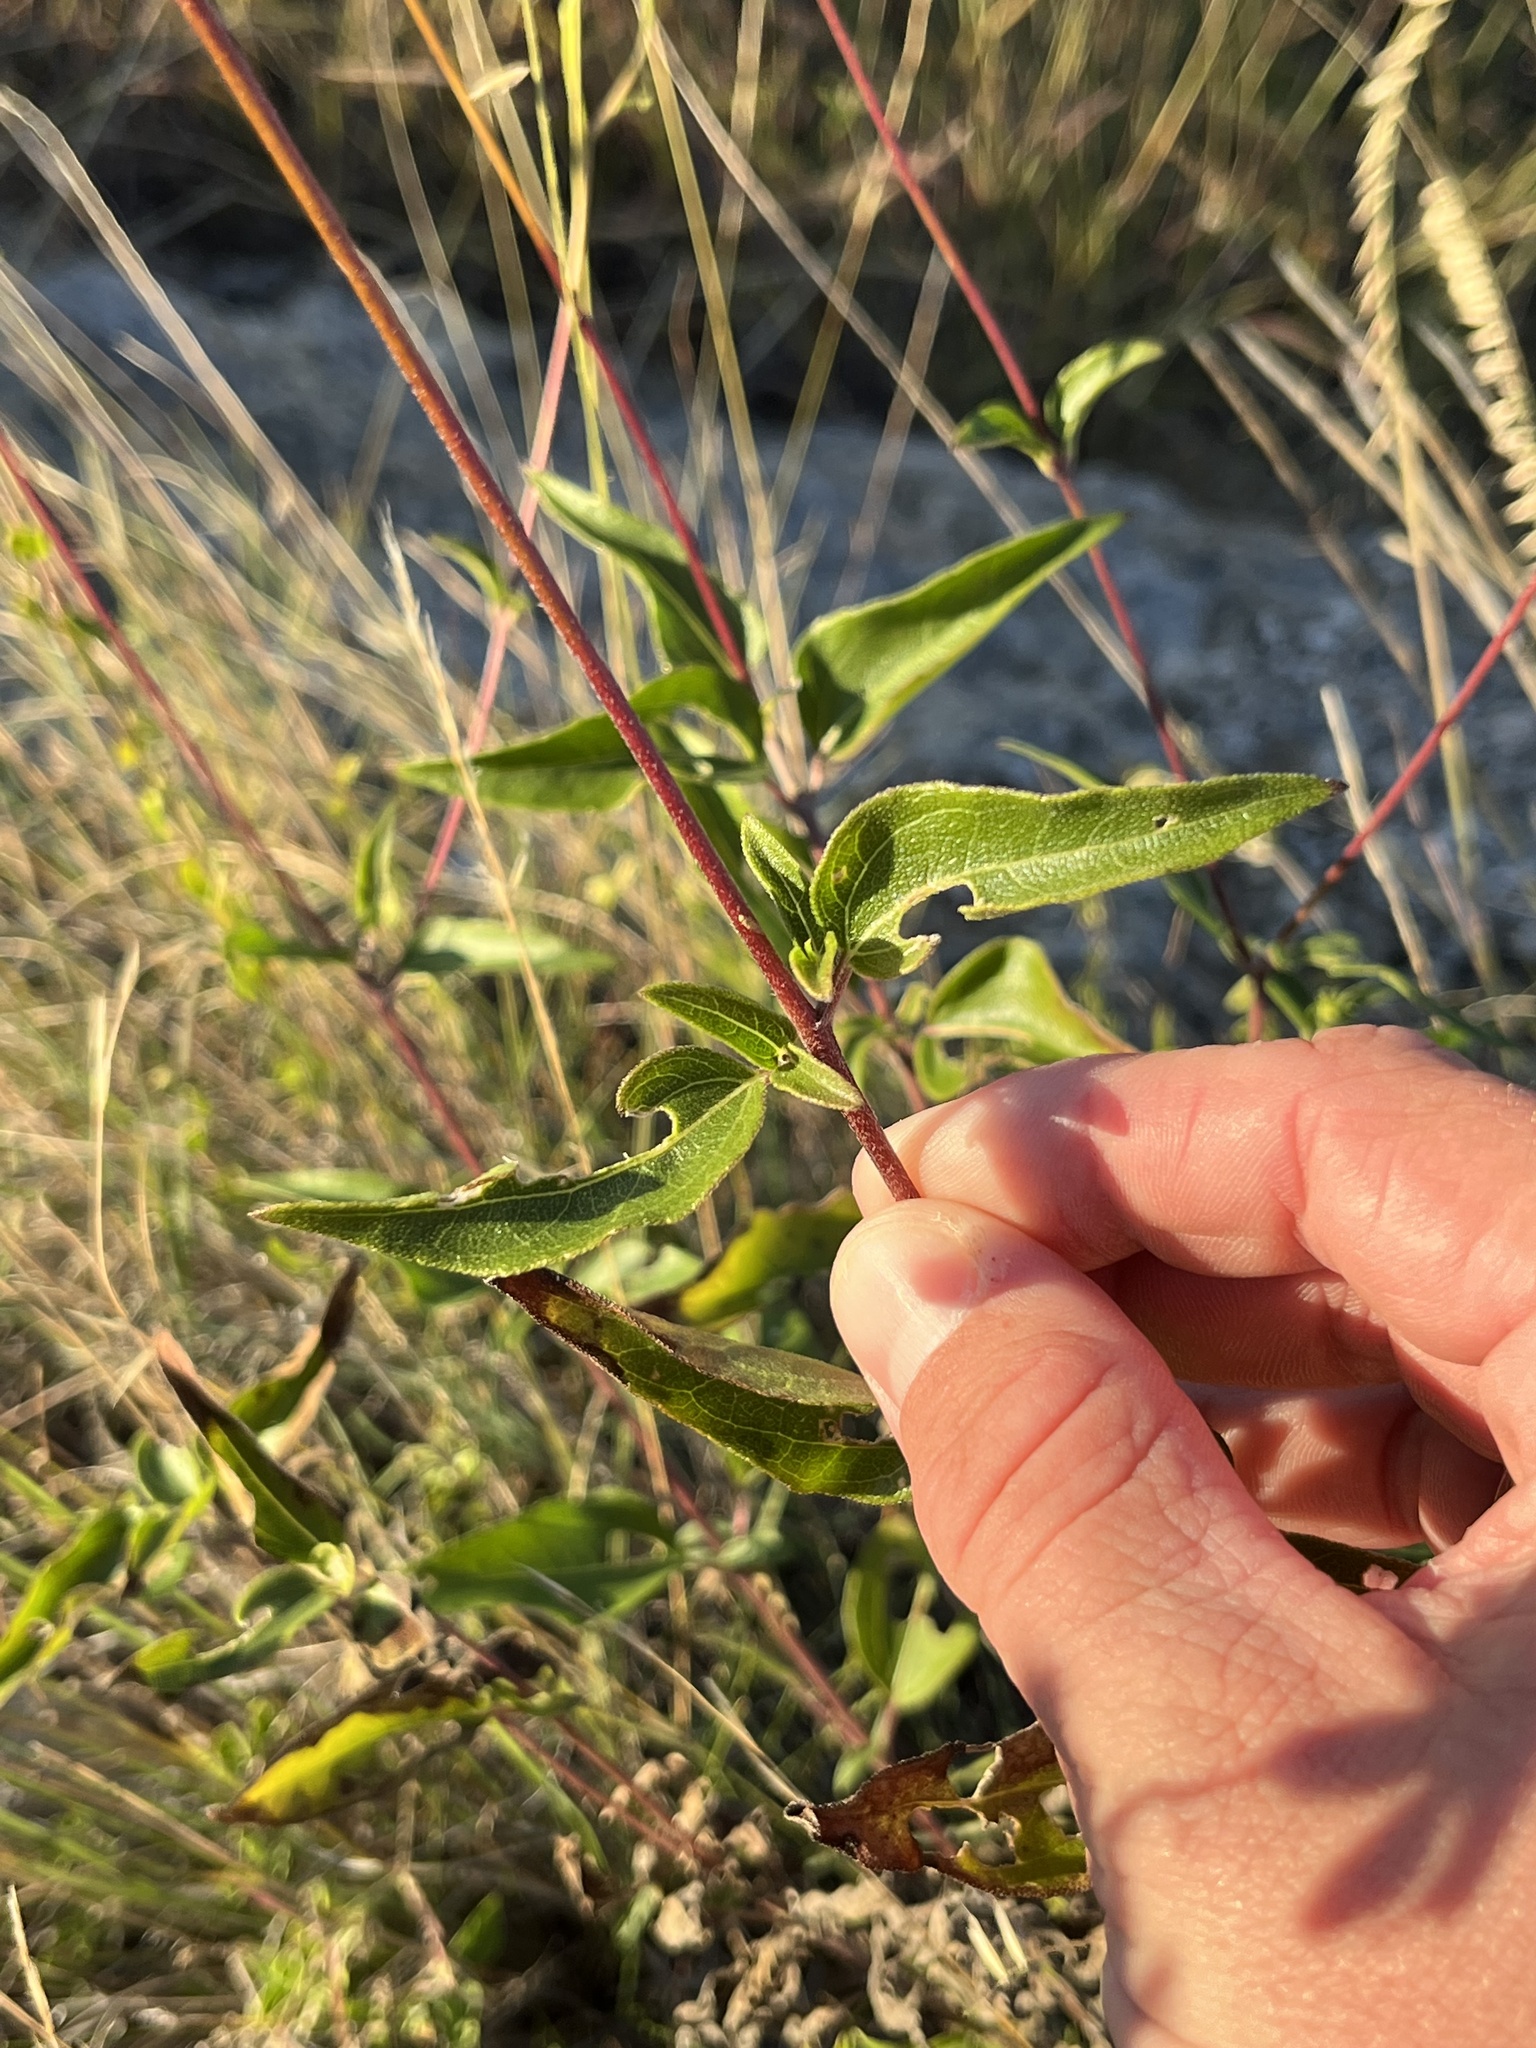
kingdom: Plantae
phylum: Tracheophyta
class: Magnoliopsida
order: Asterales
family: Asteraceae
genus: Viguiera
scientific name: Viguiera dentata
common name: Toothleaf
